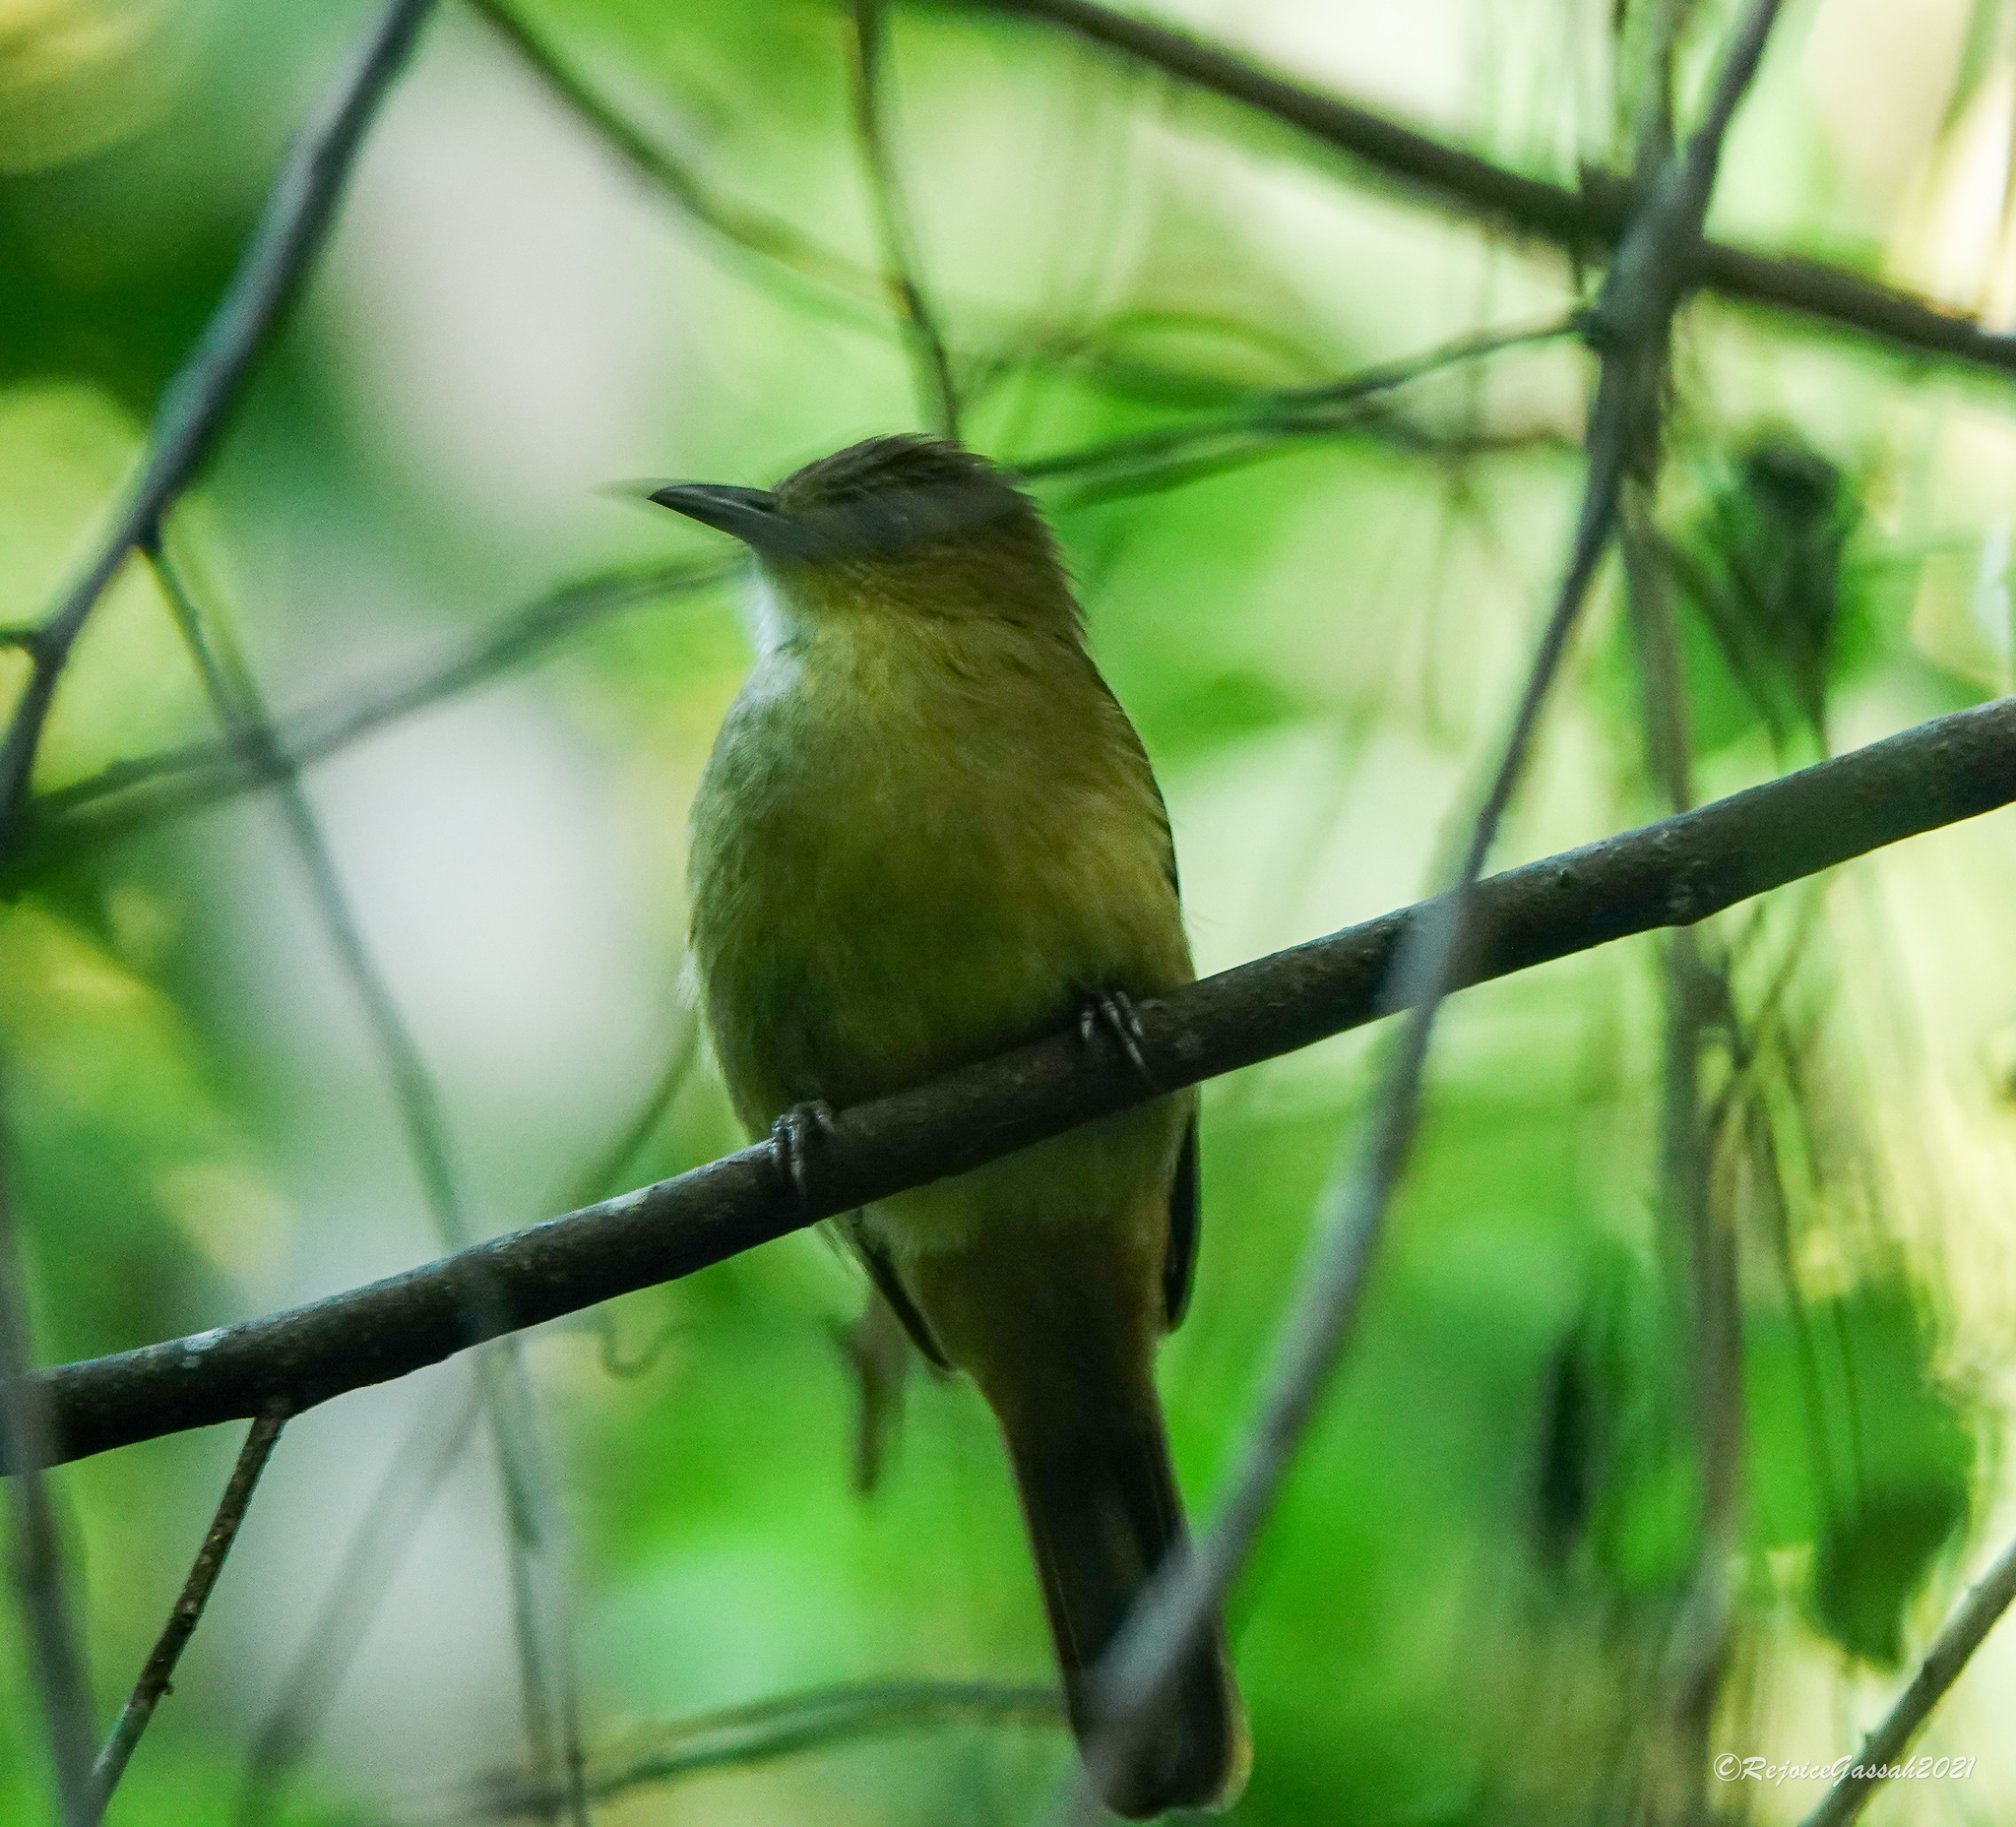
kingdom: Animalia
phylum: Chordata
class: Aves
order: Passeriformes
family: Pycnonotidae
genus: Iole
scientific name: Iole virescens
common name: Olive bulbul
